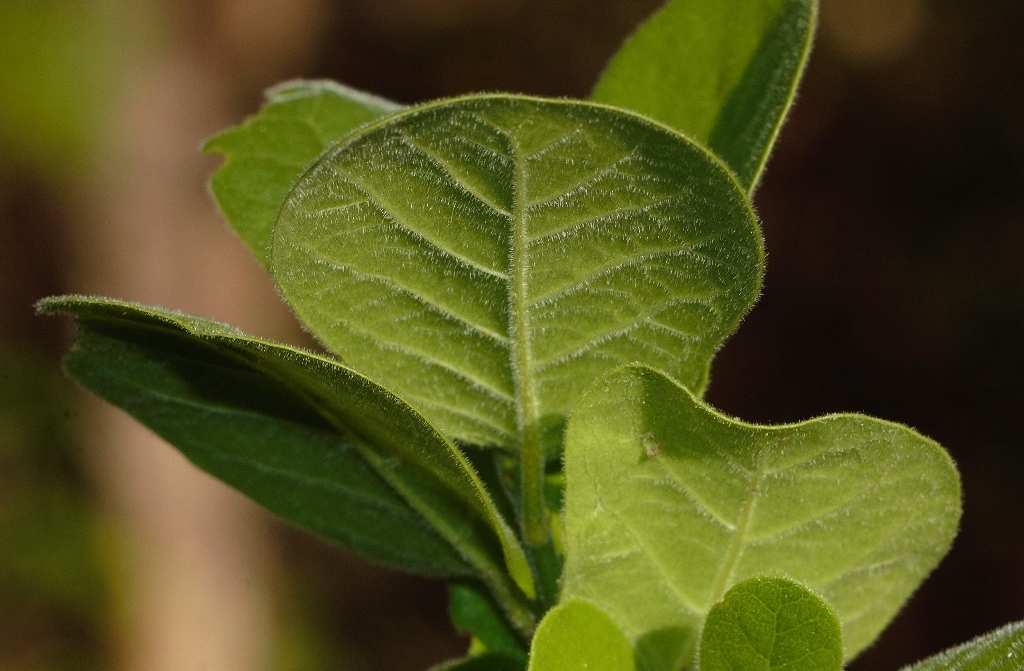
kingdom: Plantae
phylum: Tracheophyta
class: Magnoliopsida
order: Malpighiales
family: Achariaceae
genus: Xylotheca
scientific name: Xylotheca tettensis
